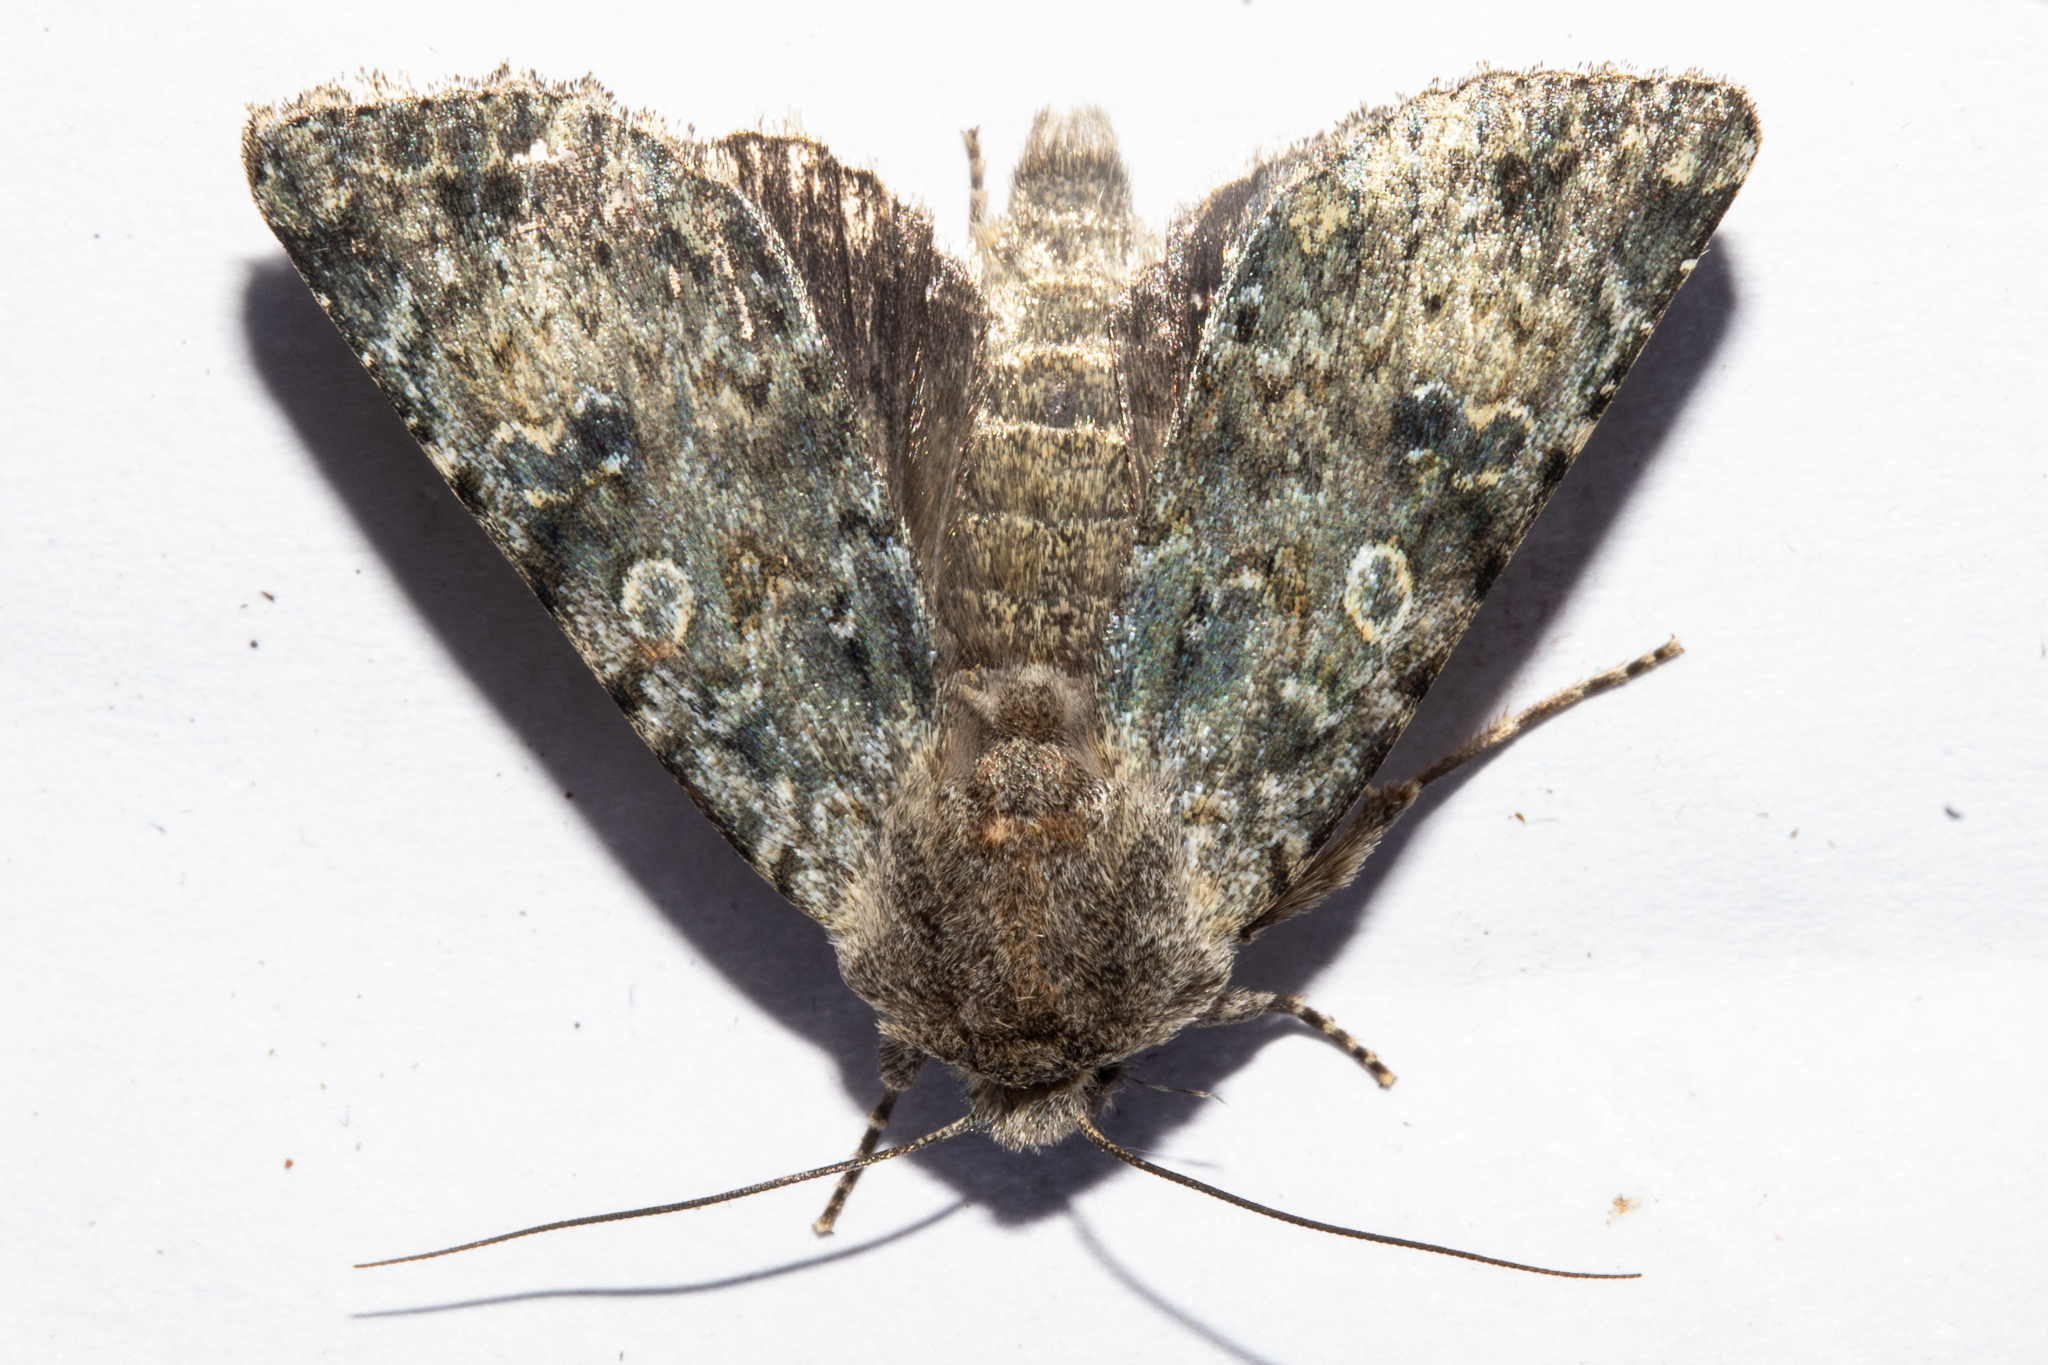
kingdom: Animalia
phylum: Arthropoda
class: Insecta
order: Lepidoptera
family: Noctuidae
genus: Ichneutica
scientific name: Ichneutica cuneata
